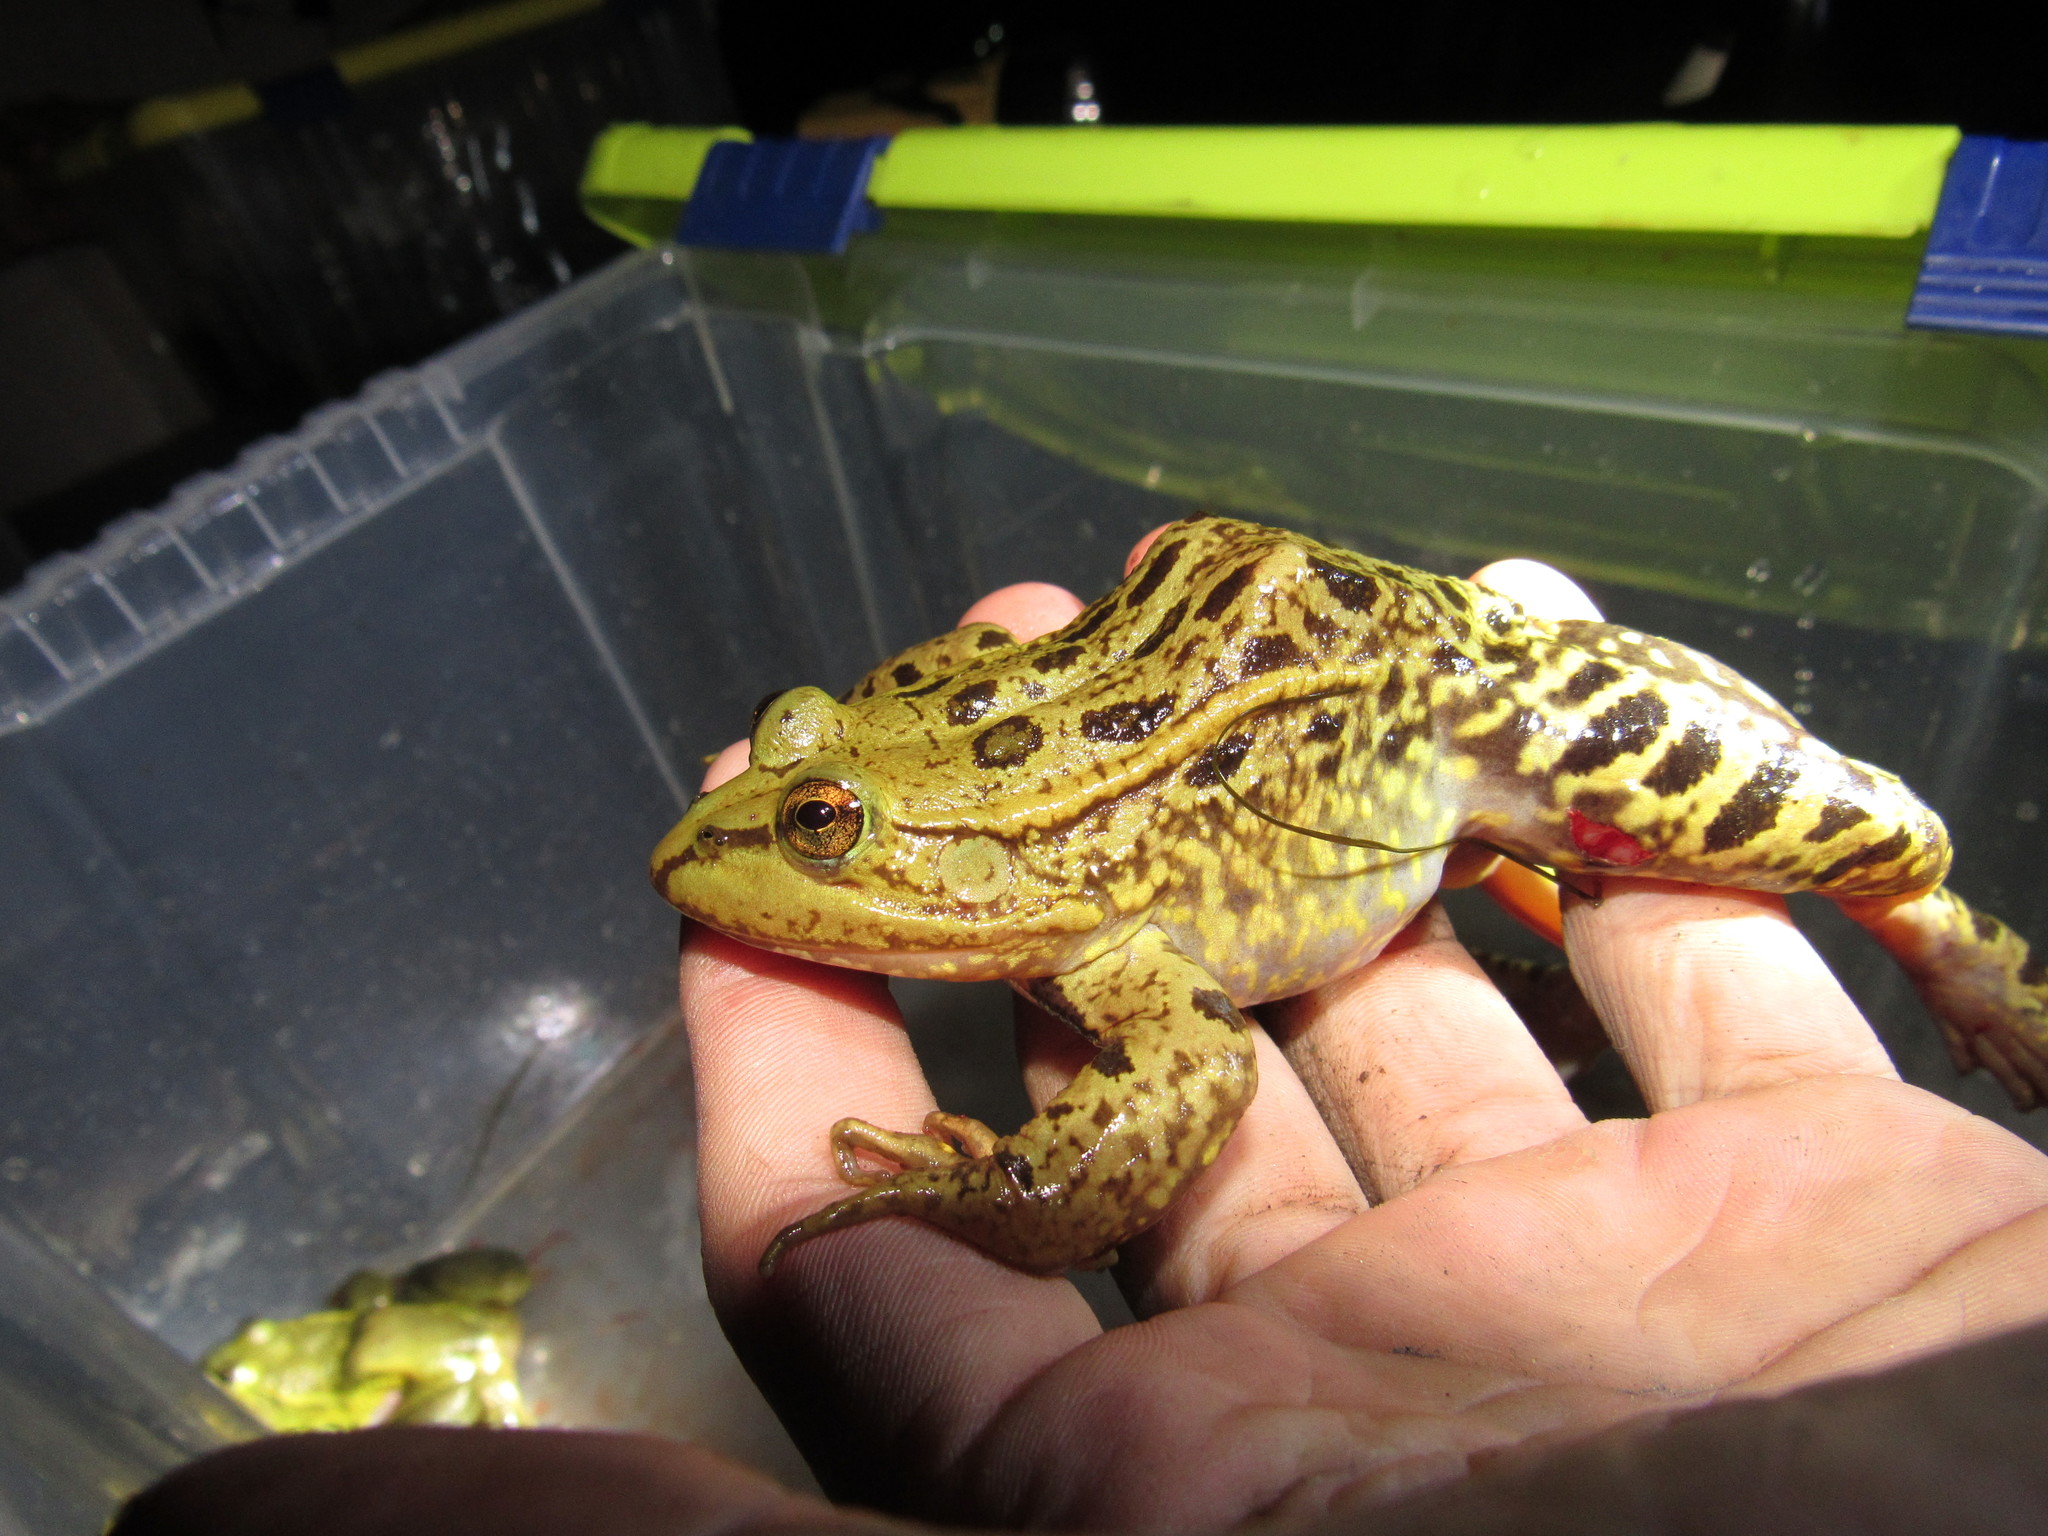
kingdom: Animalia
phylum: Chordata
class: Amphibia
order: Anura
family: Ranidae
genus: Lithobates
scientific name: Lithobates megapoda
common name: Big-footed leopard frog
